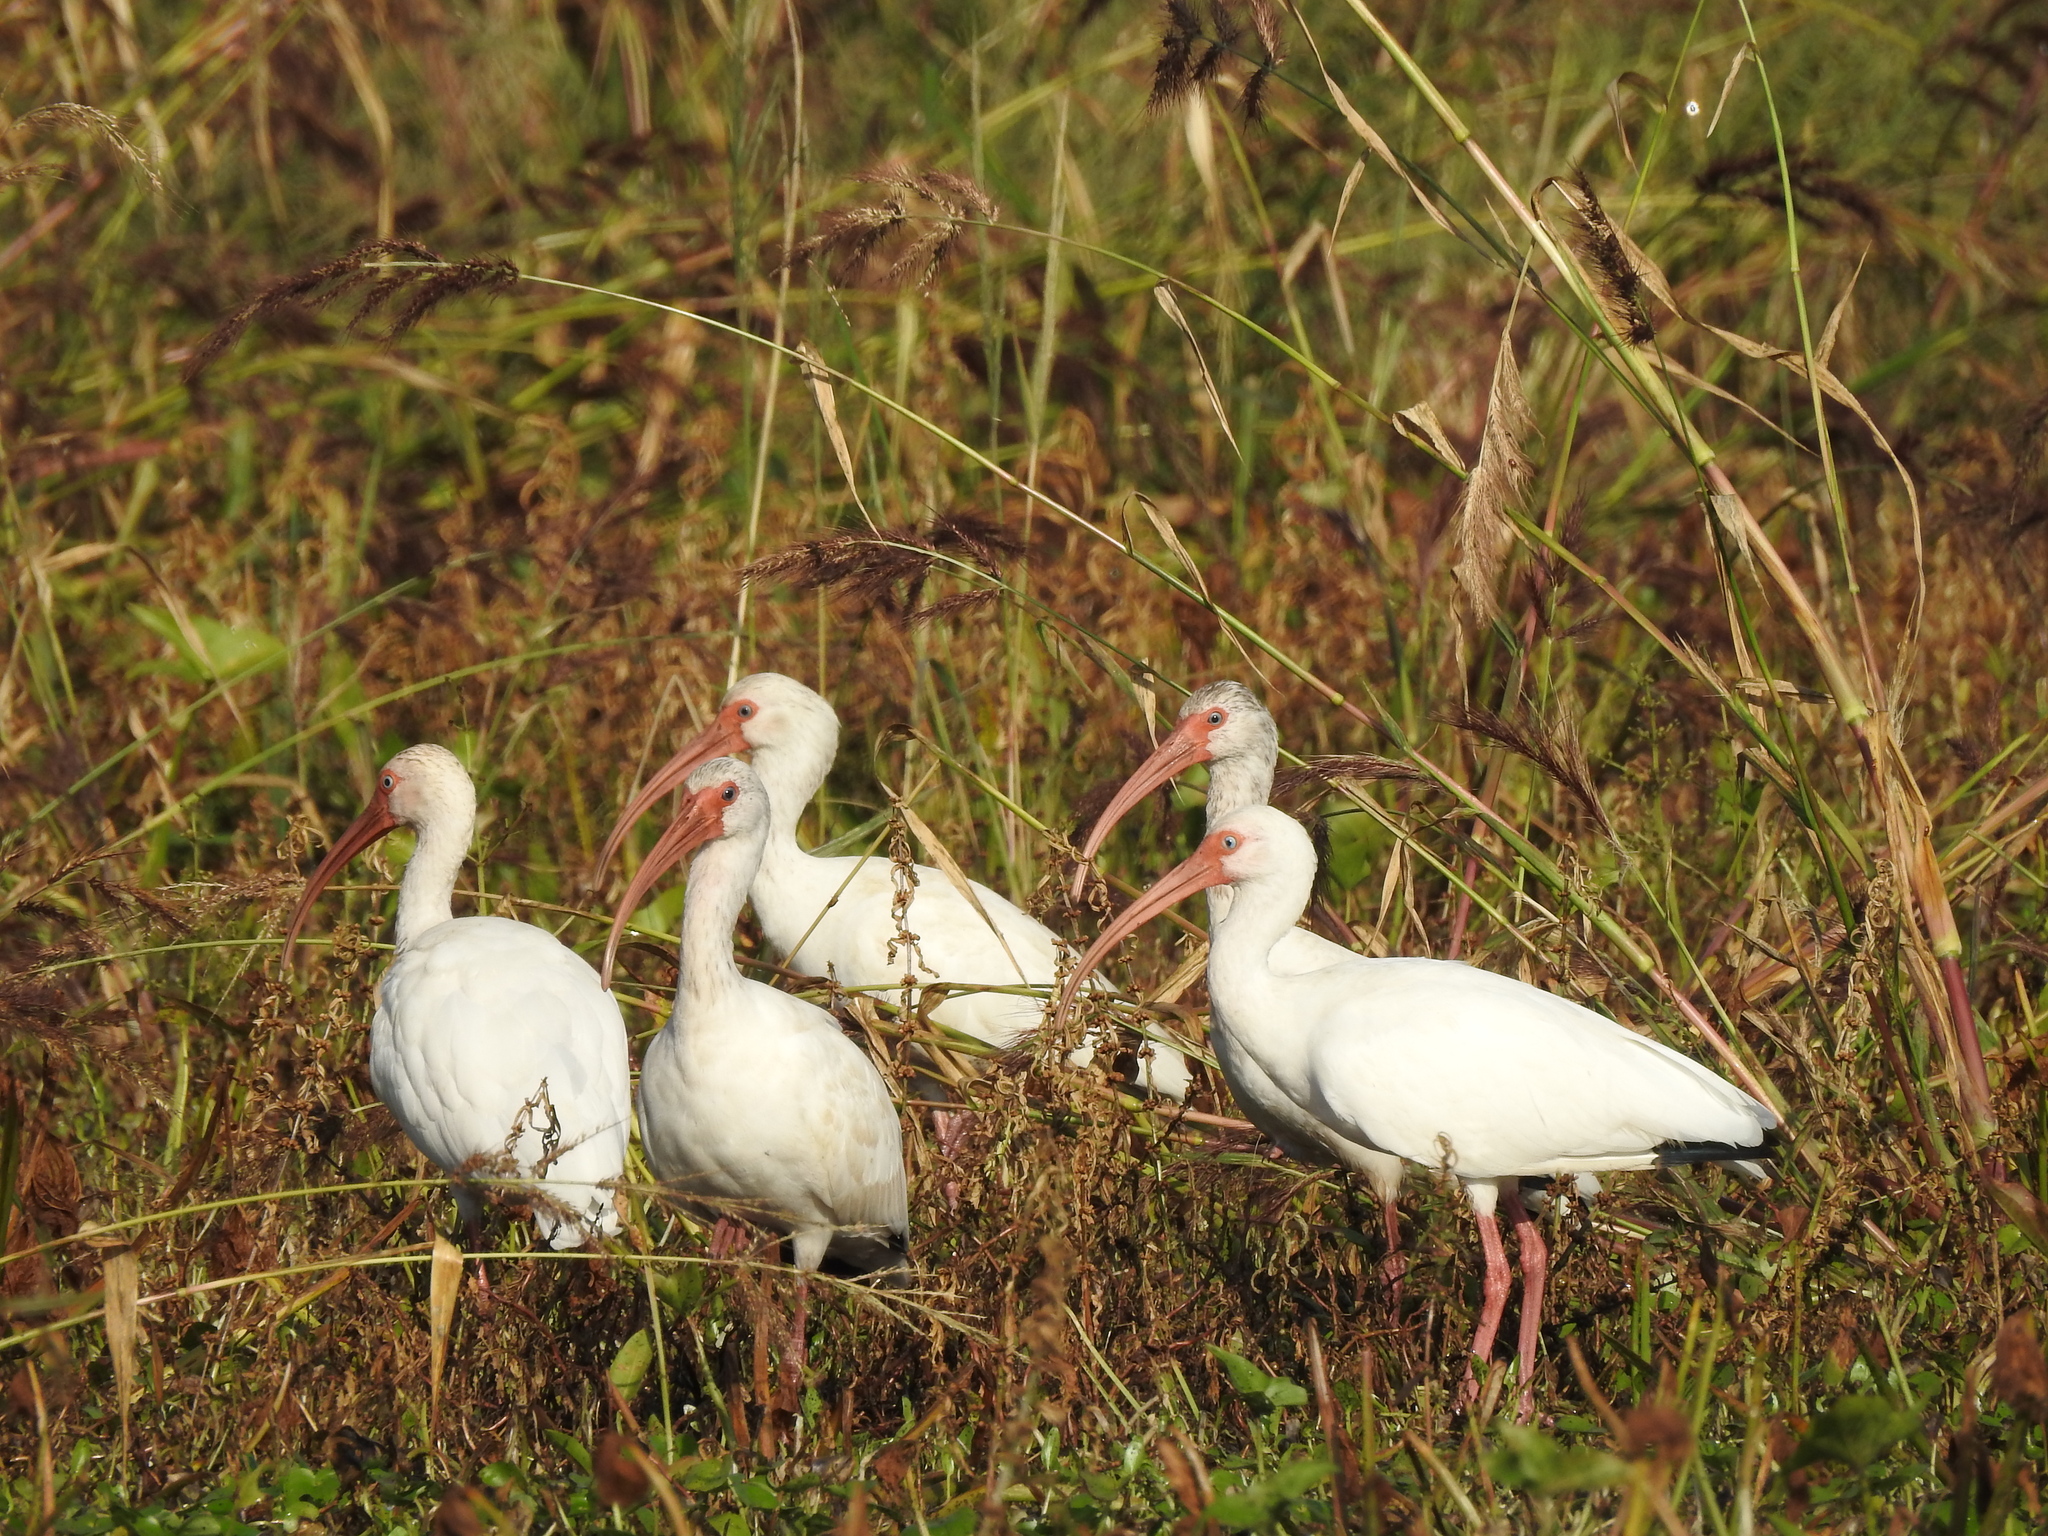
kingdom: Animalia
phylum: Chordata
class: Aves
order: Pelecaniformes
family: Threskiornithidae
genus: Eudocimus
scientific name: Eudocimus albus
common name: White ibis
